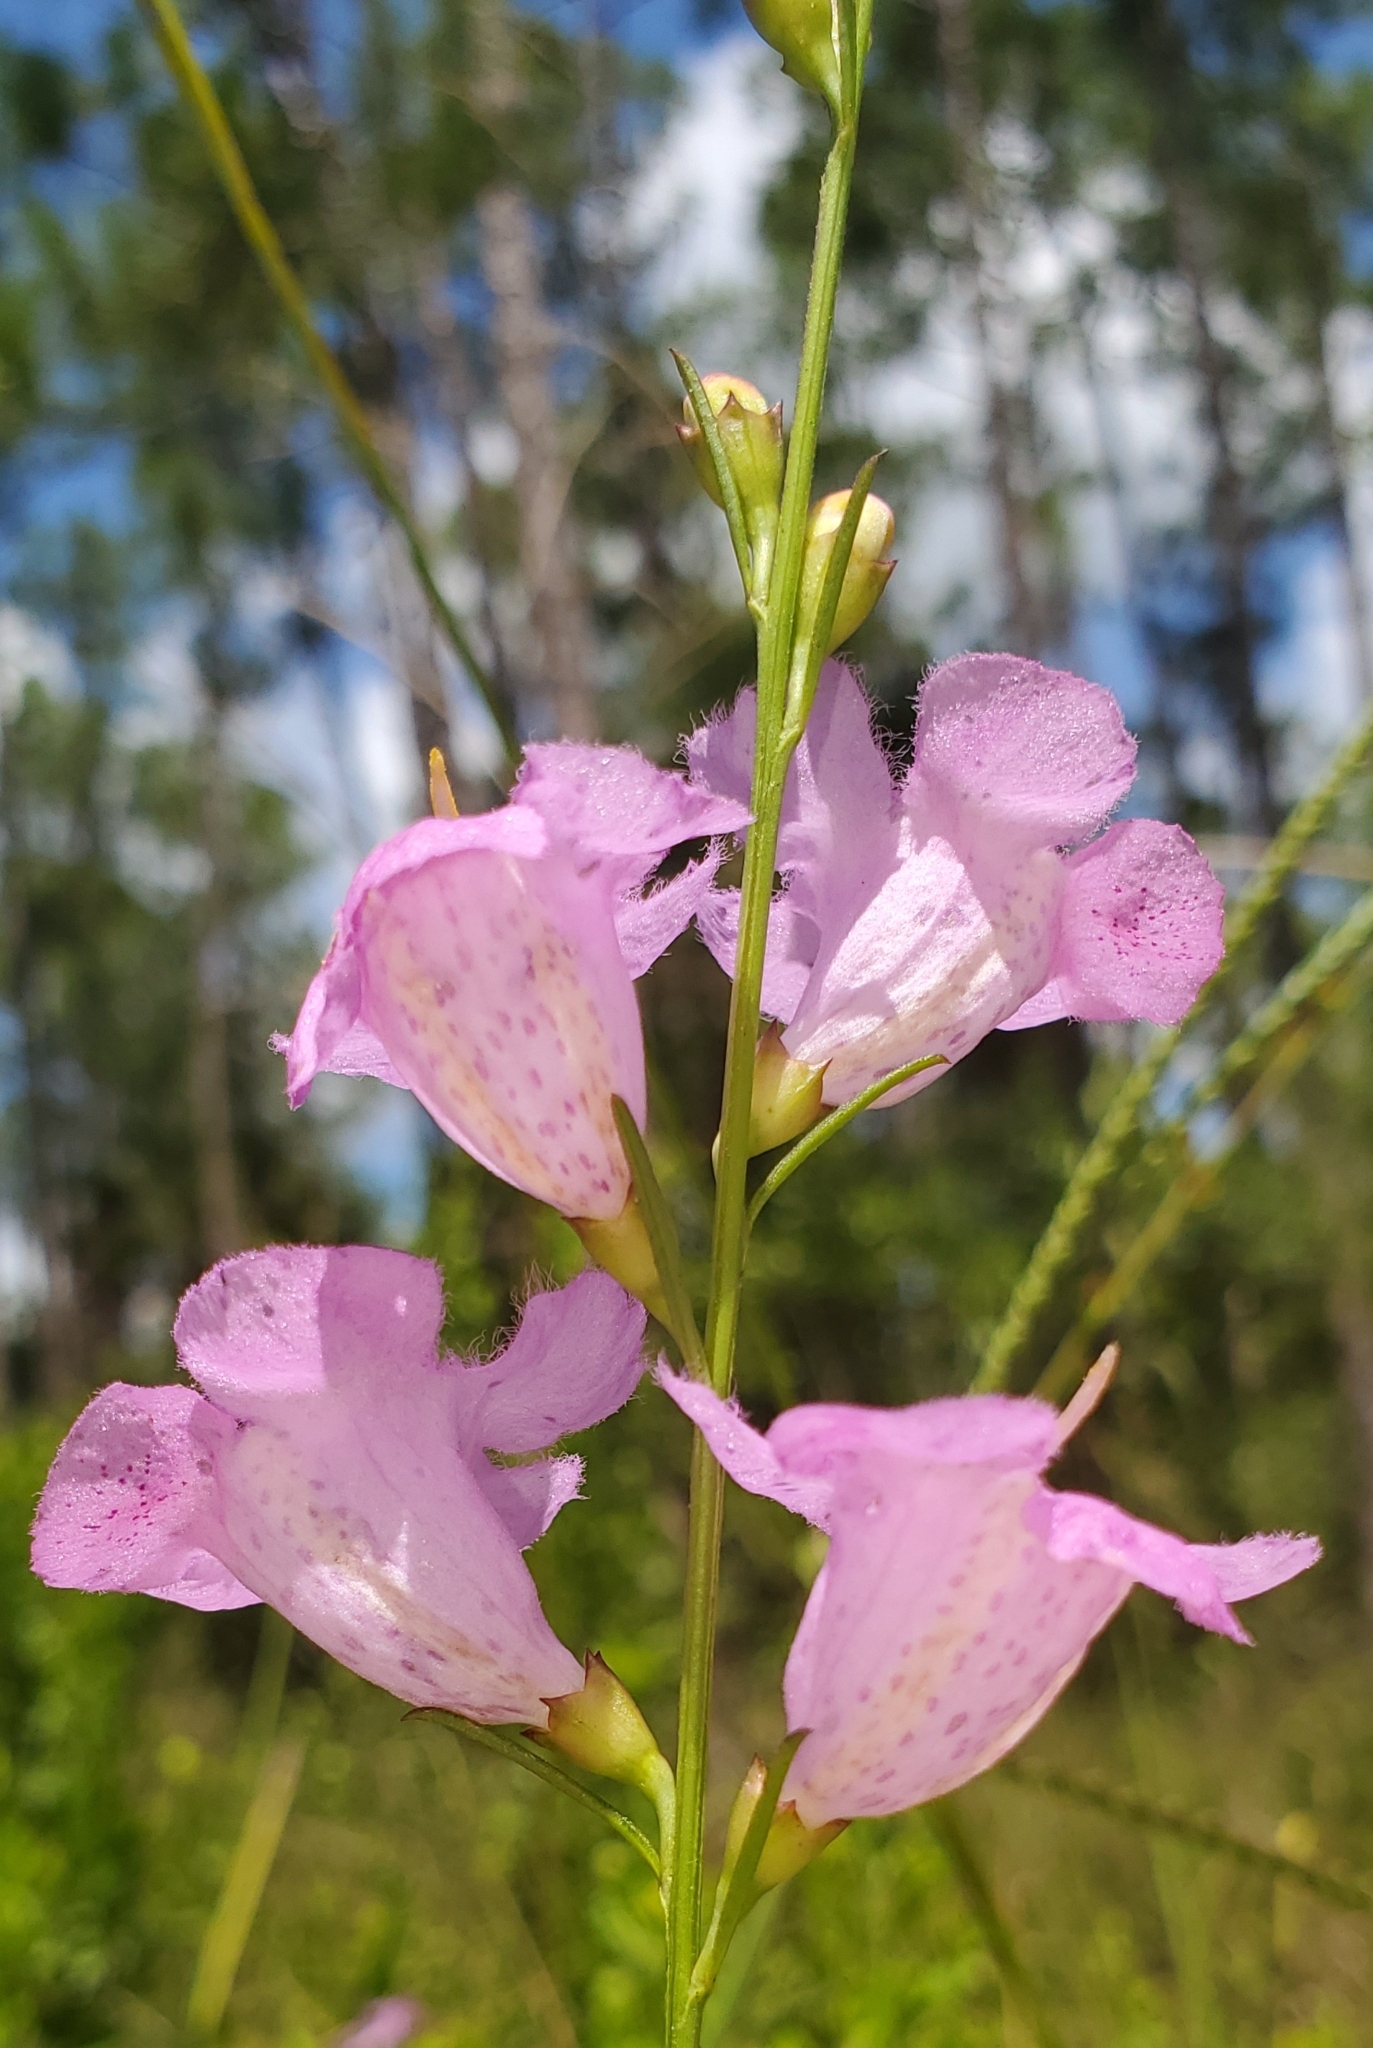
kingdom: Plantae
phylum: Tracheophyta
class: Magnoliopsida
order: Lamiales
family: Orobanchaceae
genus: Agalinis
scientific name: Agalinis harperi
